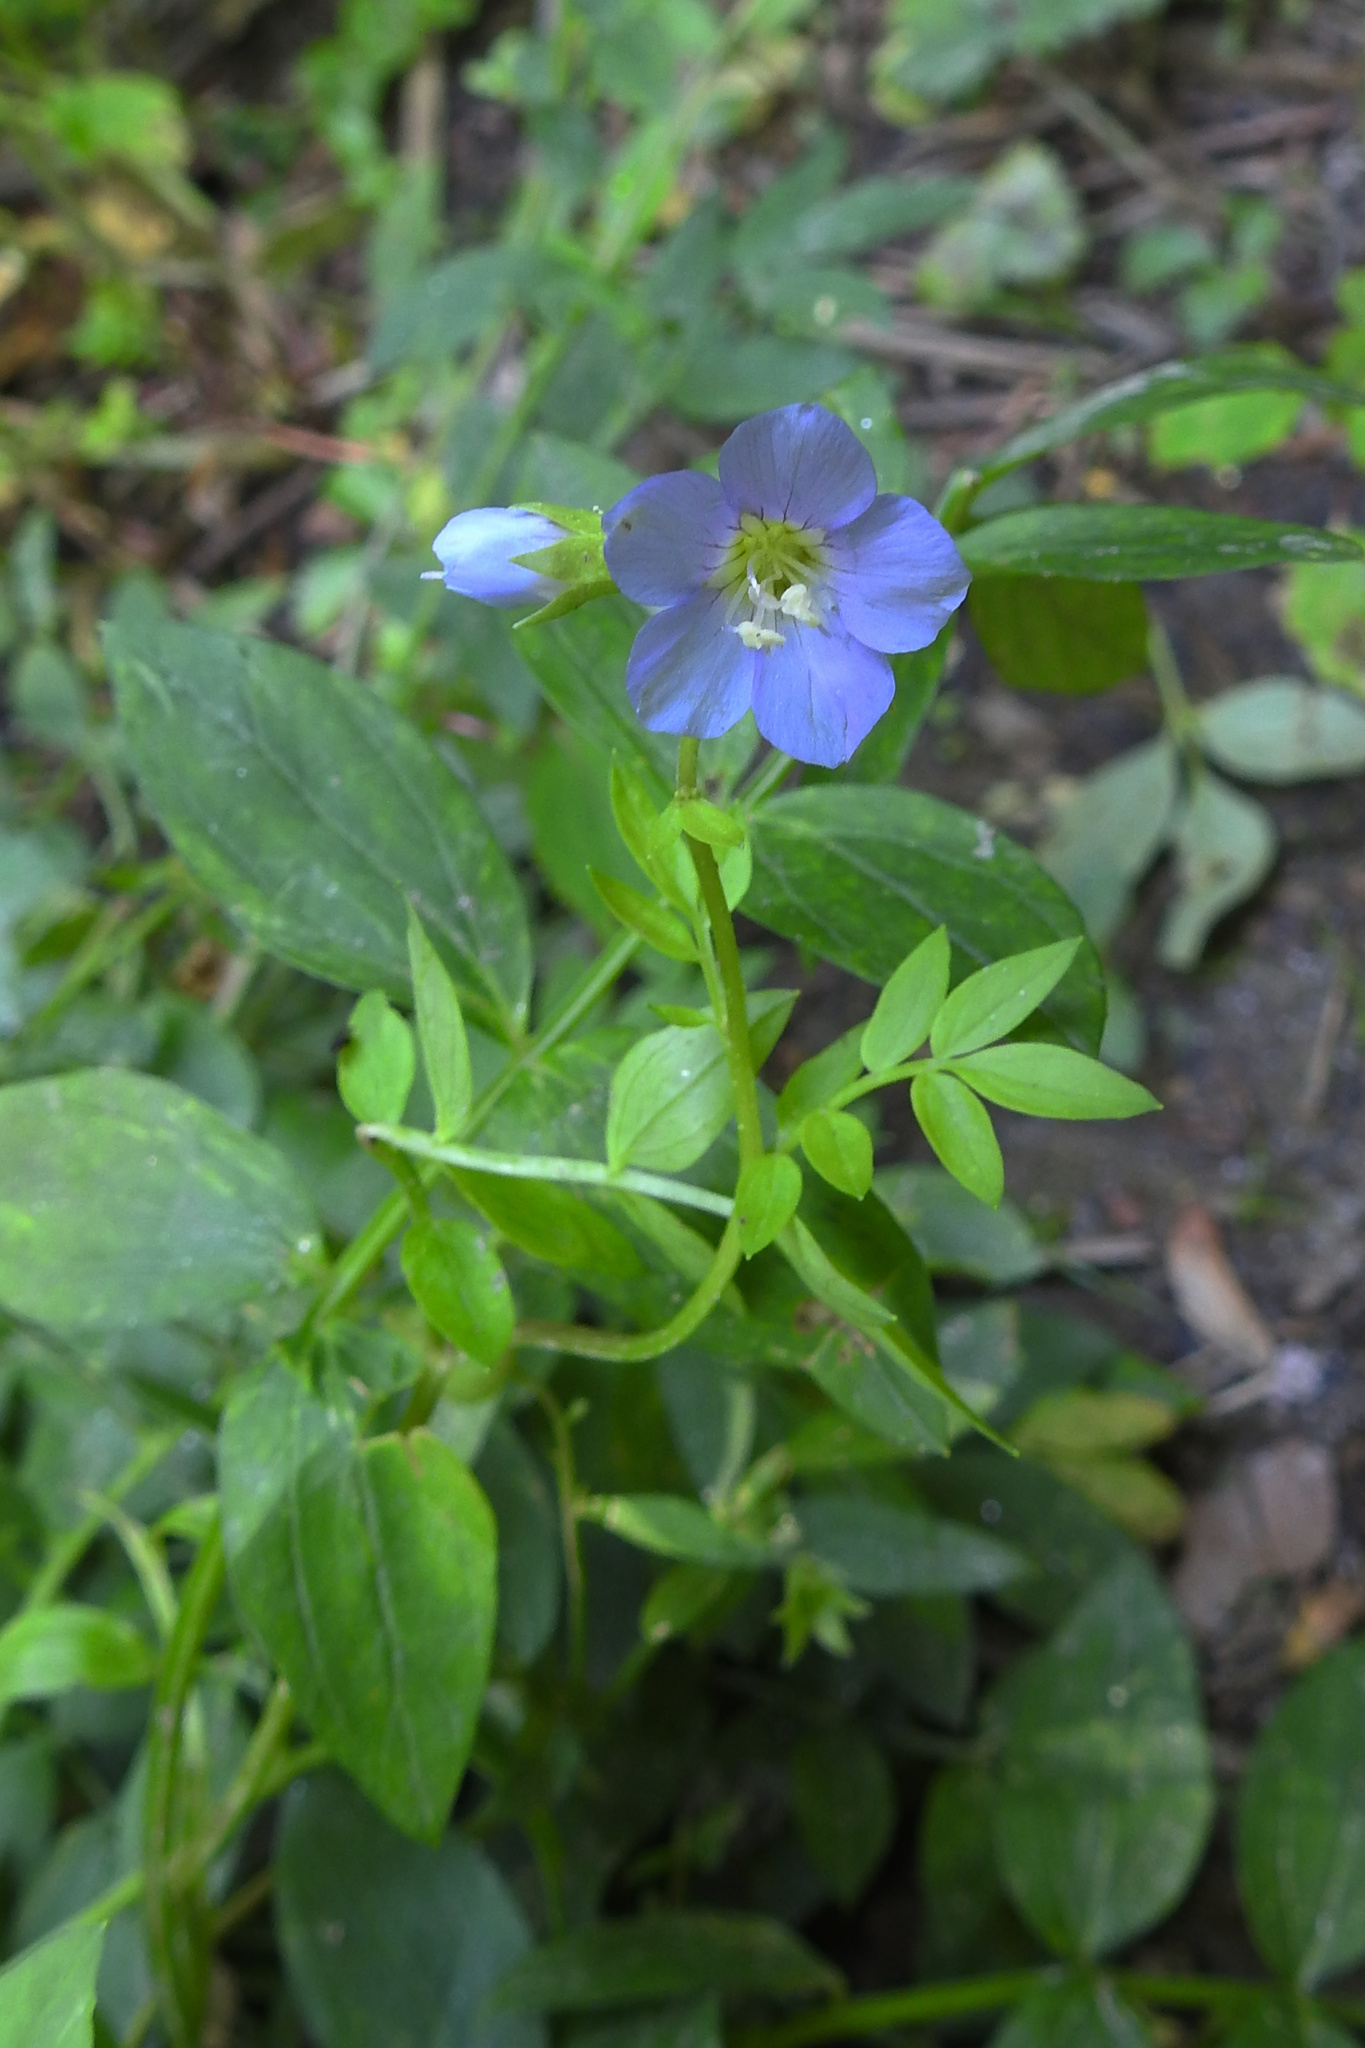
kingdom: Plantae
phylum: Tracheophyta
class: Magnoliopsida
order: Ericales
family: Polemoniaceae
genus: Polemonium
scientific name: Polemonium reptans
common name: Creeping jacob's-ladder
